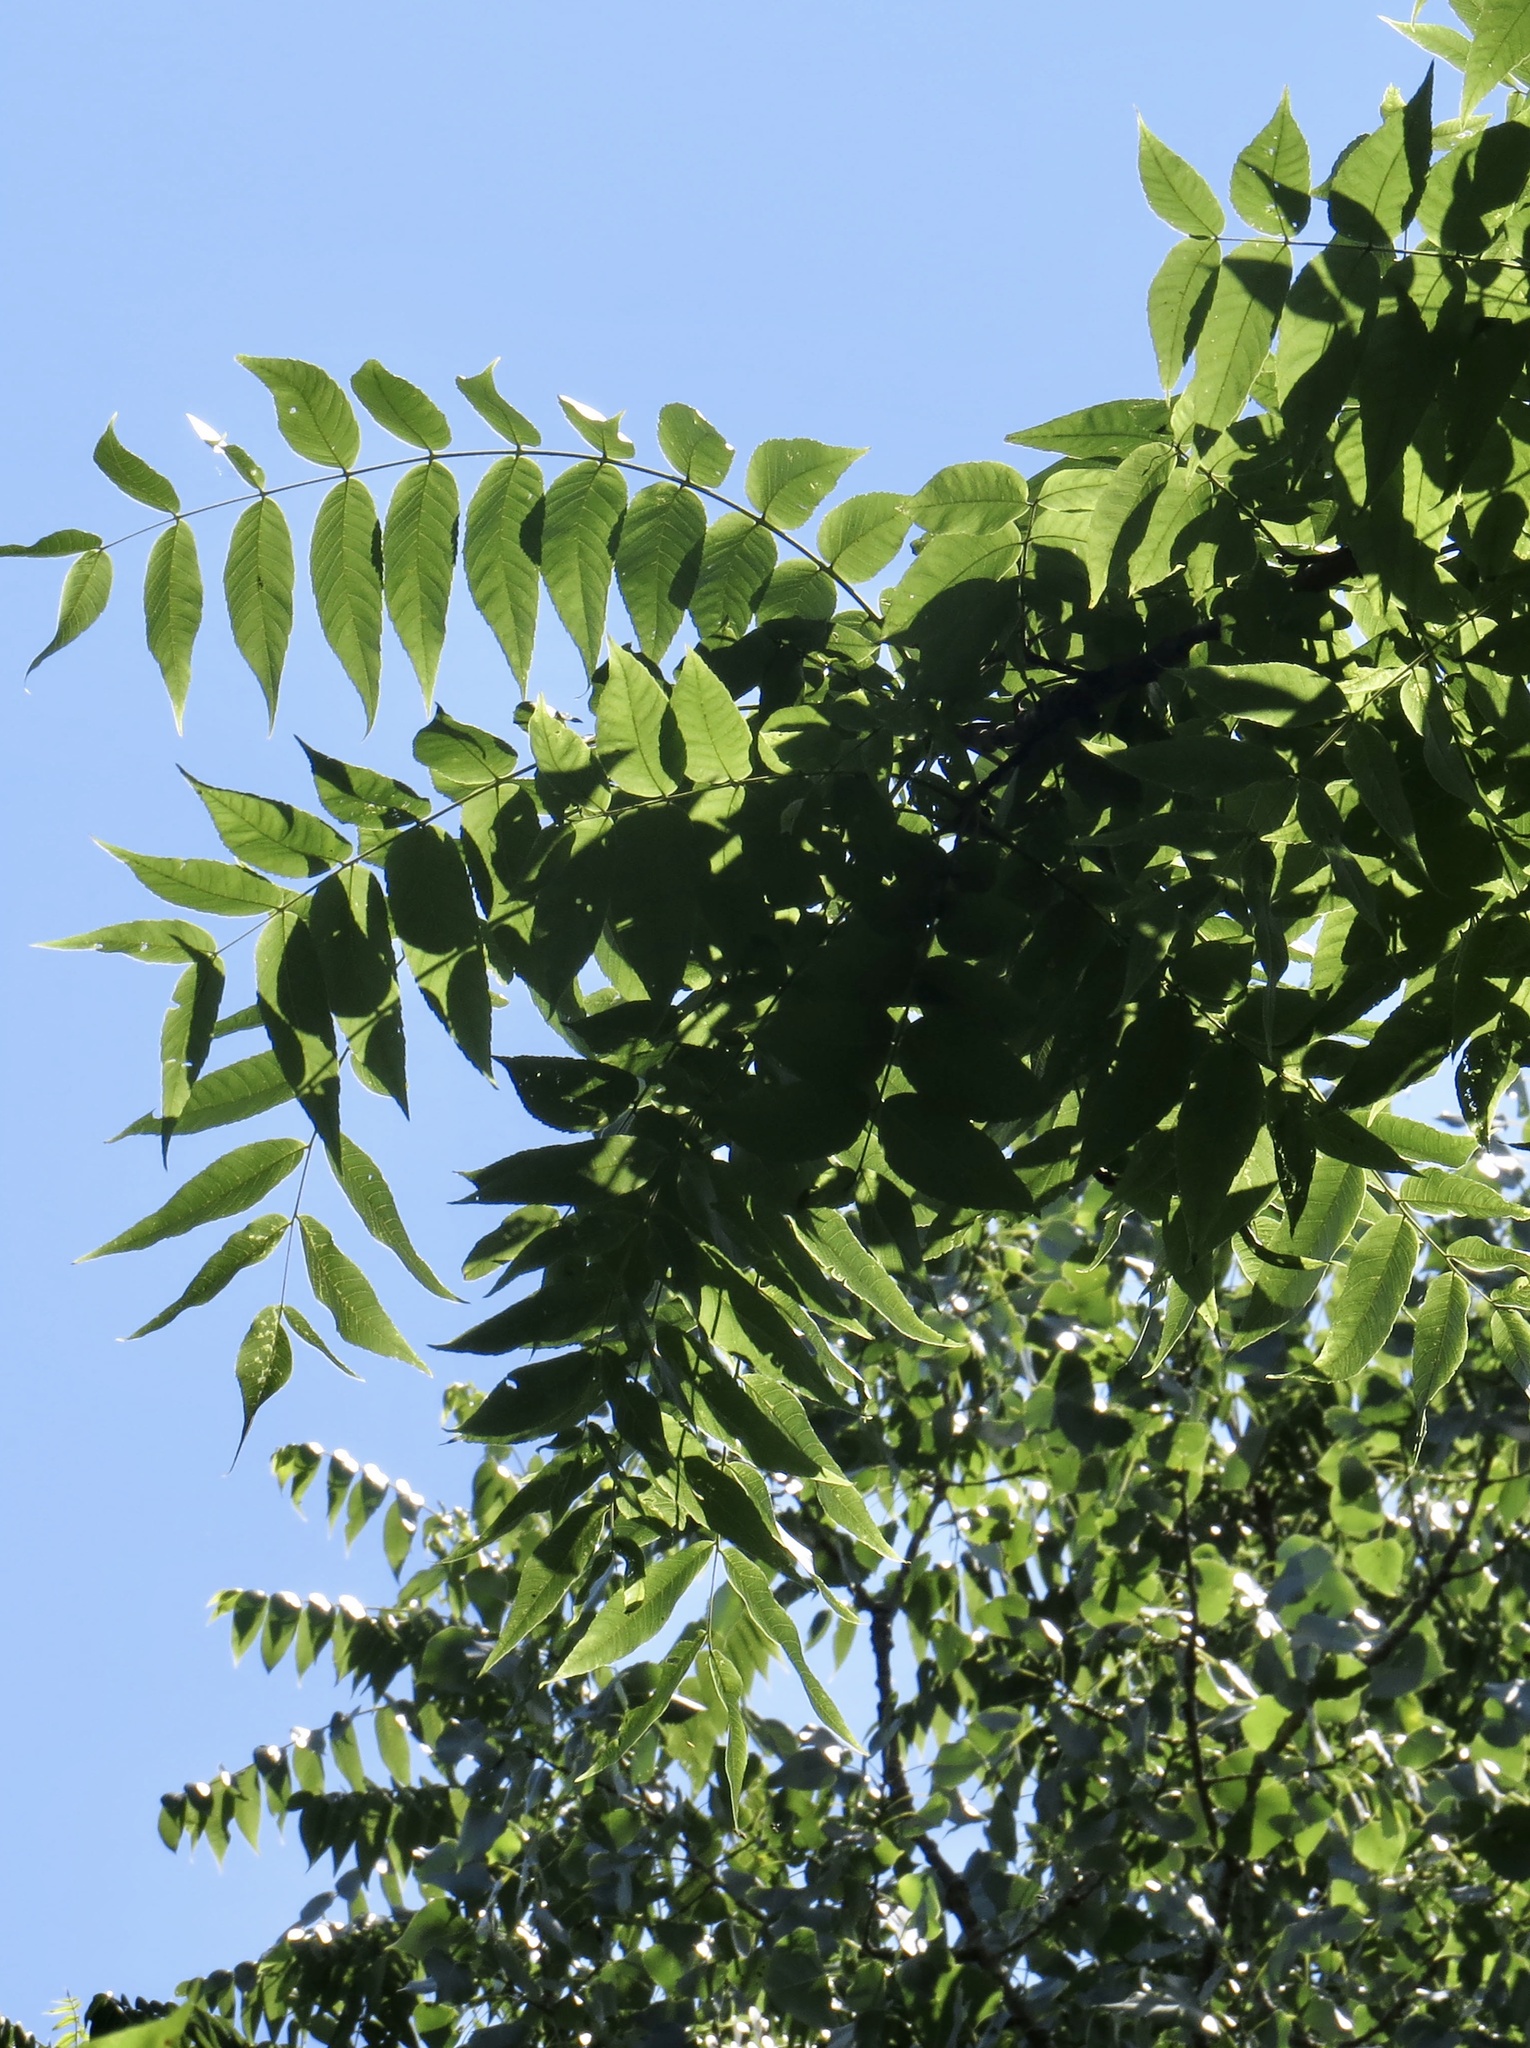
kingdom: Plantae
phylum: Tracheophyta
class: Magnoliopsida
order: Fagales
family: Juglandaceae
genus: Juglans
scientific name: Juglans nigra
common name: Black walnut
